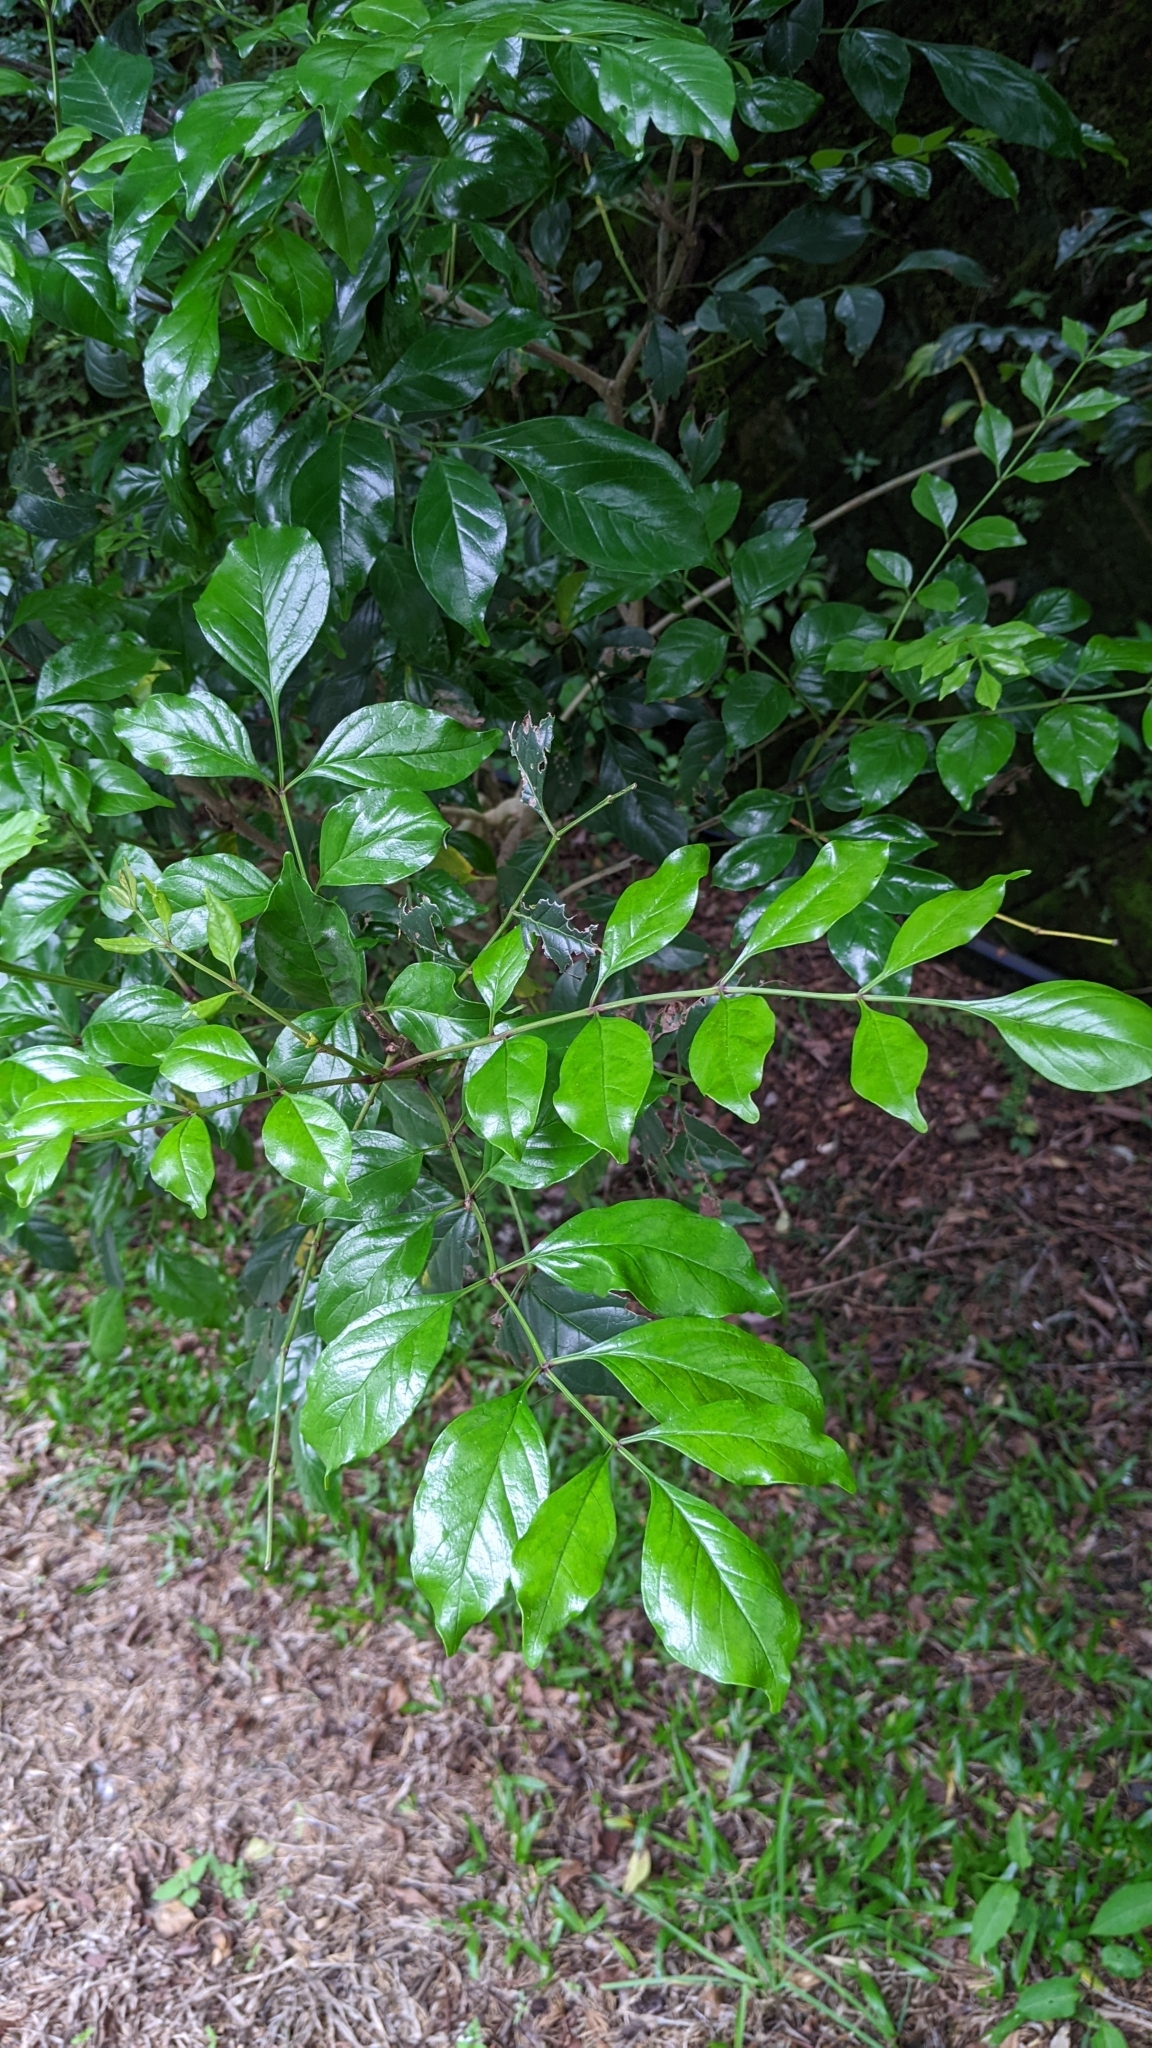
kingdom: Plantae
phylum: Tracheophyta
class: Magnoliopsida
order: Lamiales
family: Oleaceae
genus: Fraxinus
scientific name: Fraxinus griffithii
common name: Himalayan ash
